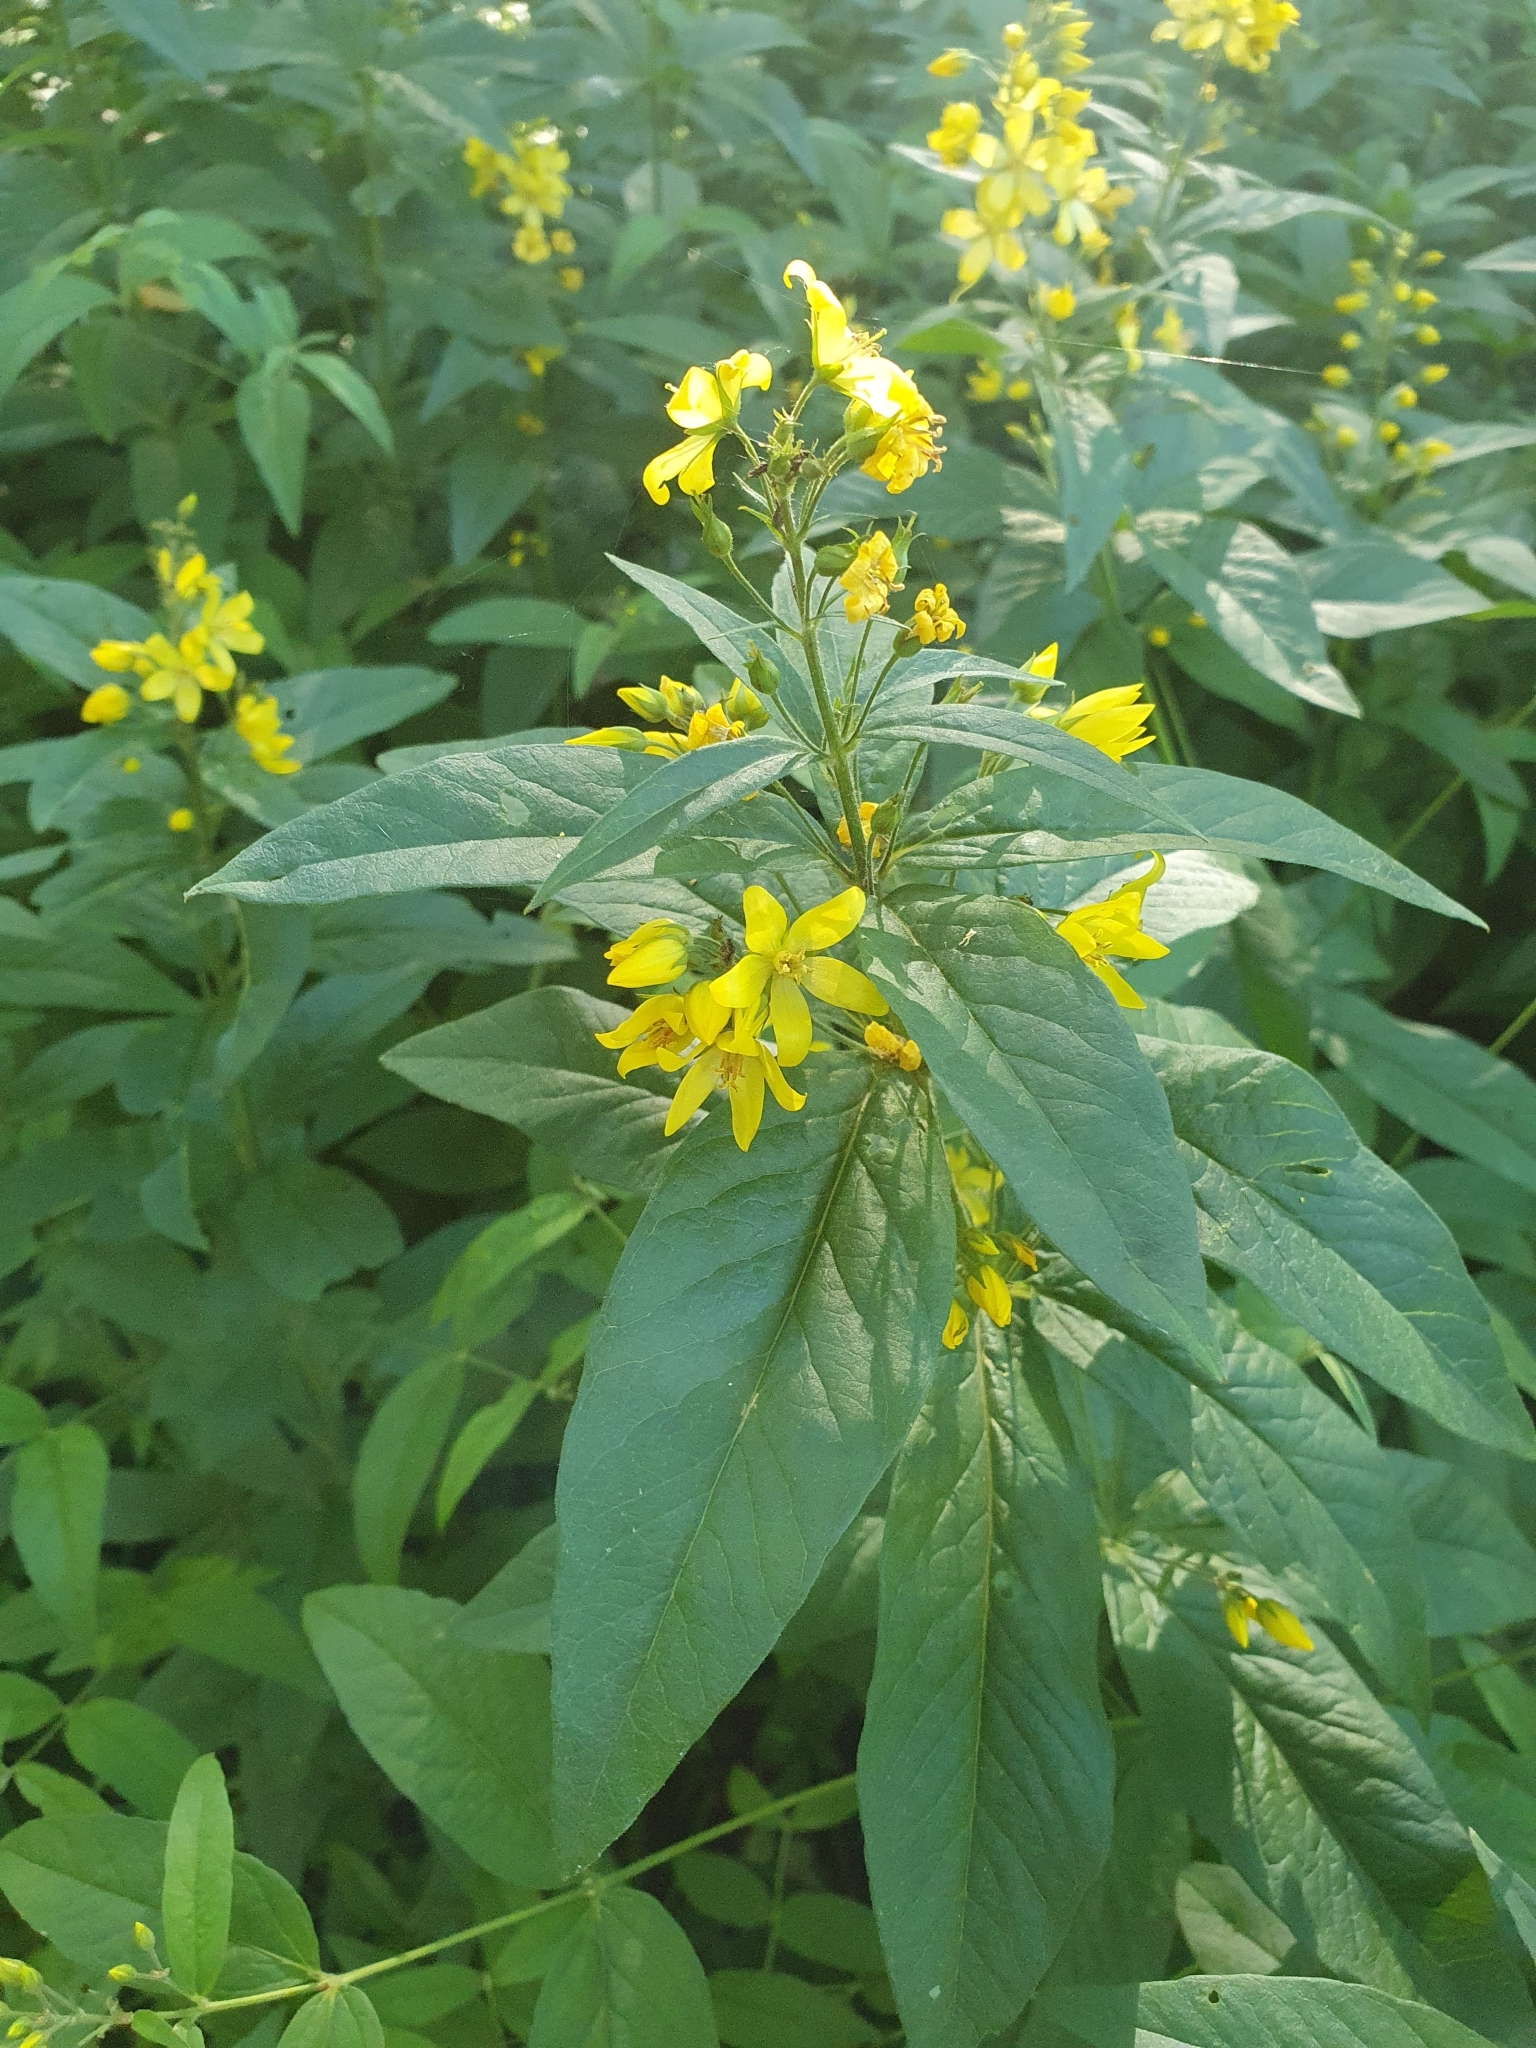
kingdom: Plantae
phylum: Tracheophyta
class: Magnoliopsida
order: Ericales
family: Primulaceae
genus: Lysimachia
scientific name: Lysimachia vulgaris
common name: Yellow loosestrife
